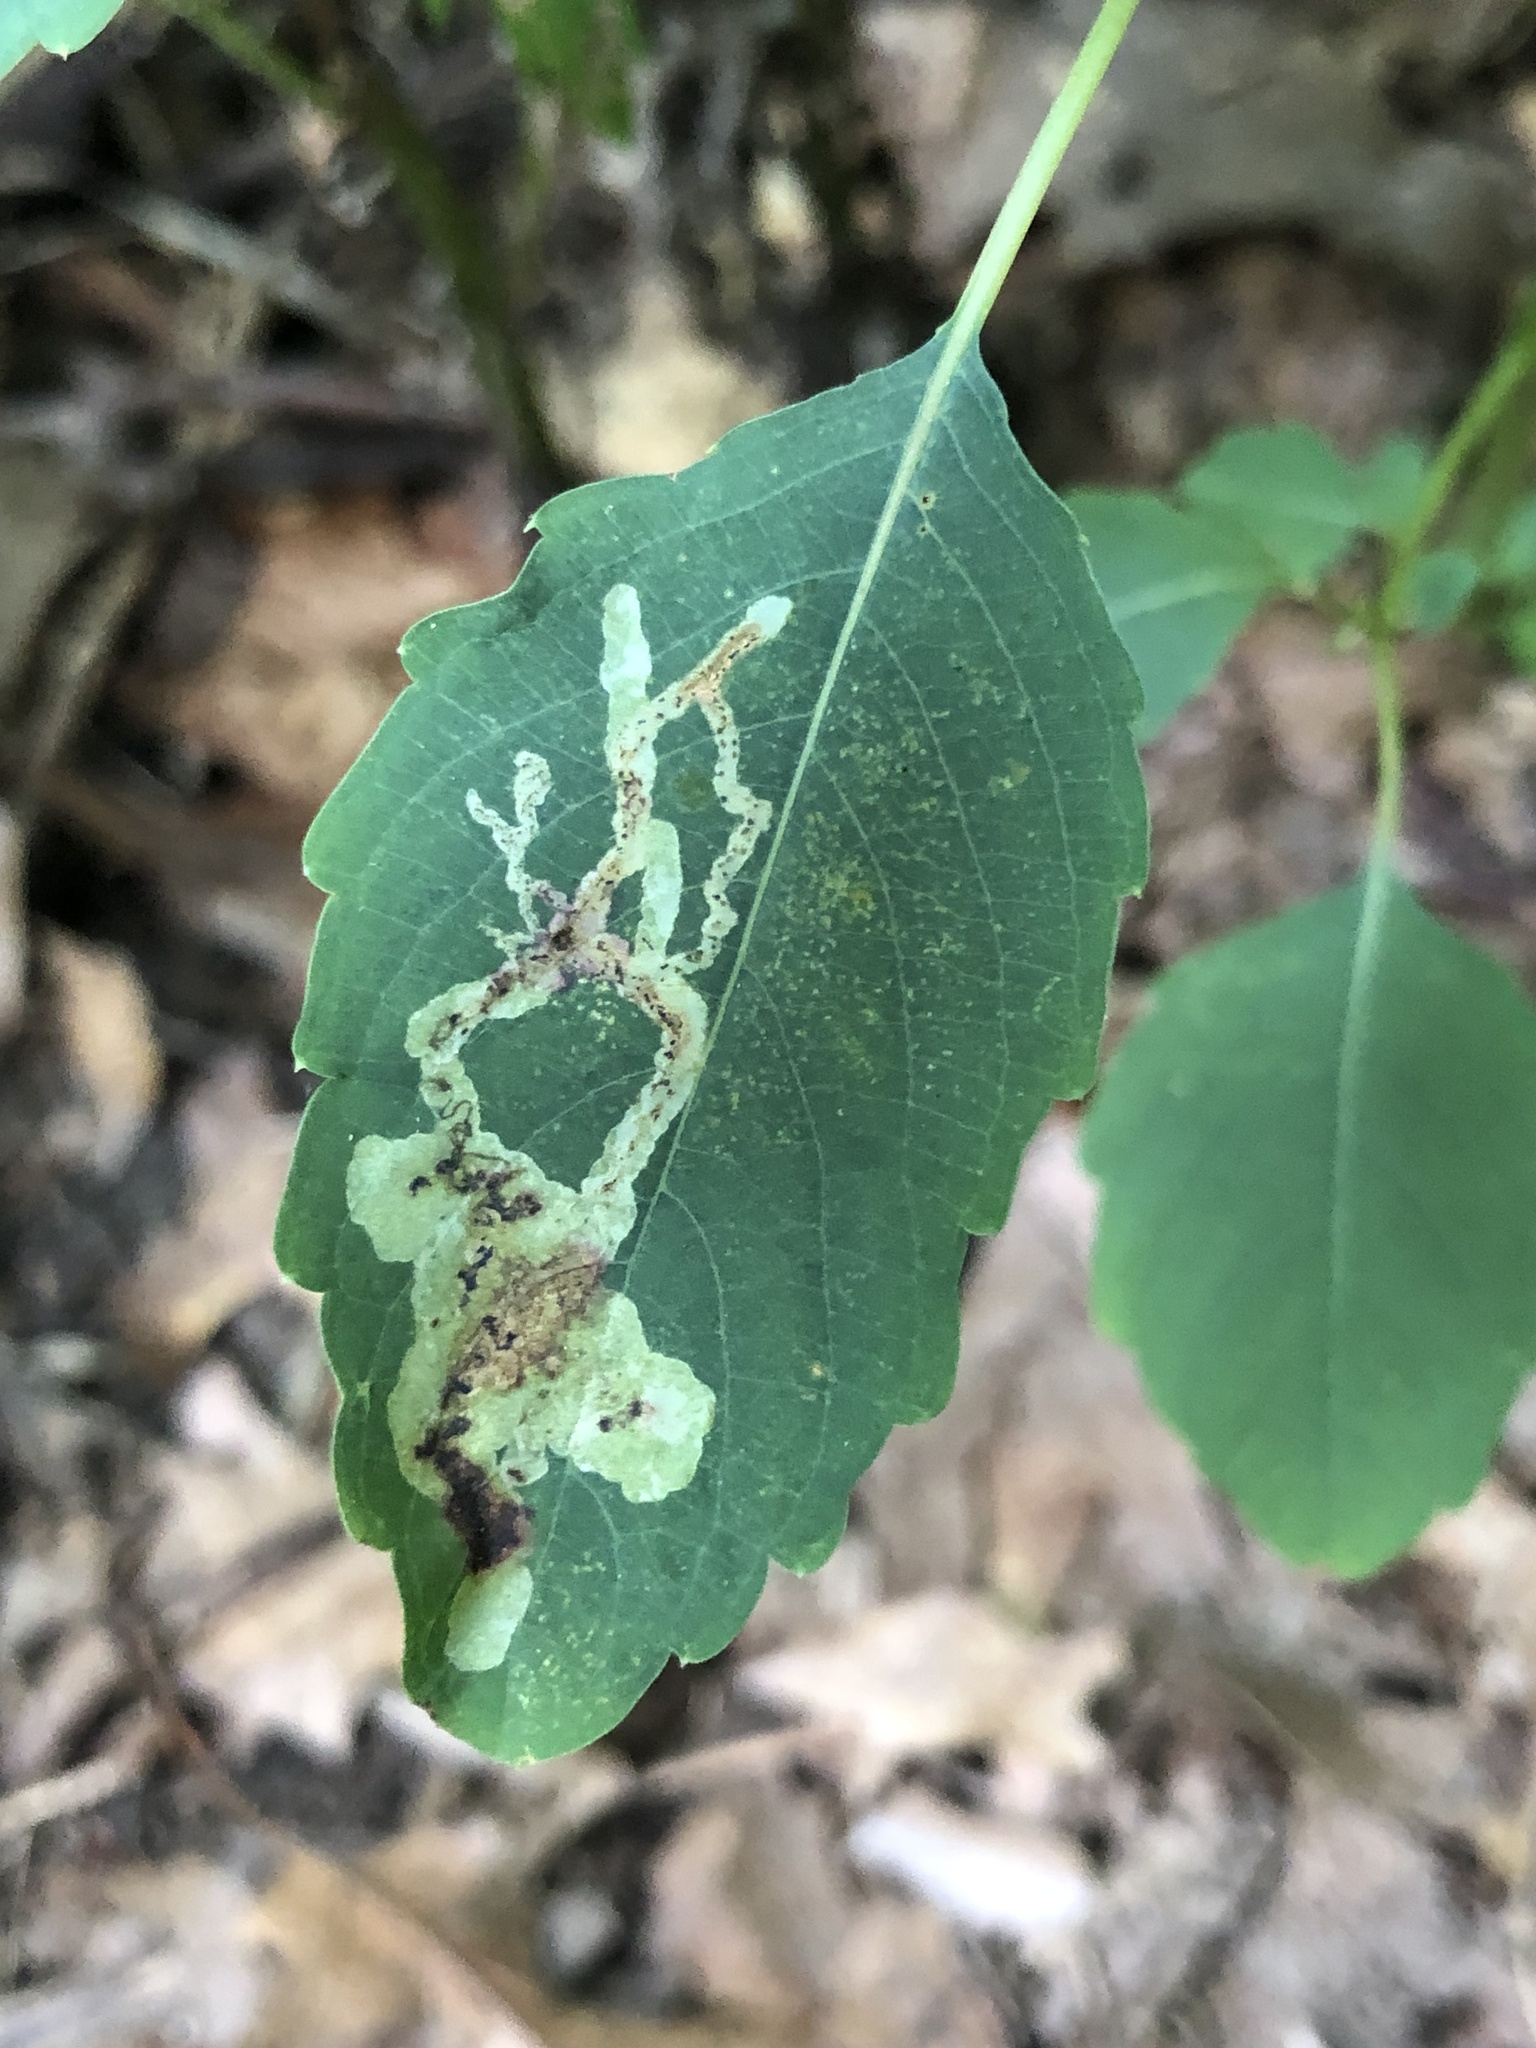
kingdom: Animalia
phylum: Arthropoda
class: Insecta
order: Diptera
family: Agromyzidae
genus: Phytoliriomyza
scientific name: Phytoliriomyza melampyga
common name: Jewelweed leaf-miner fly
